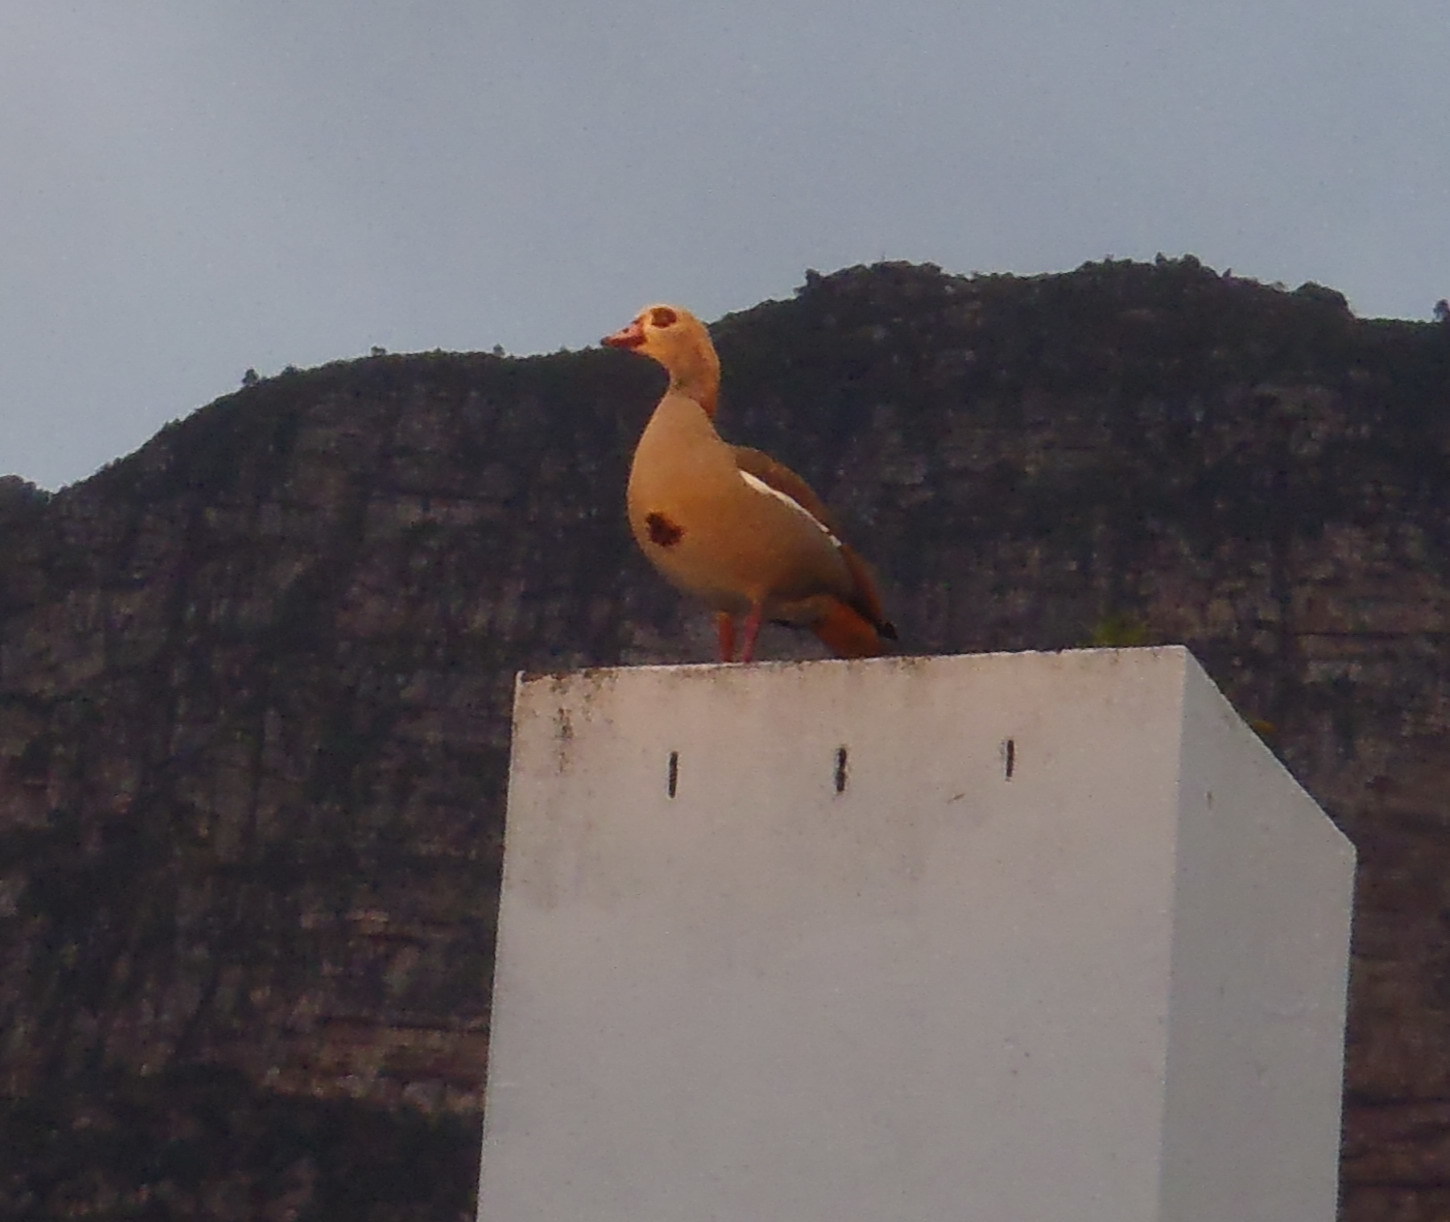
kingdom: Animalia
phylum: Chordata
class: Aves
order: Anseriformes
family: Anatidae
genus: Alopochen
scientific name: Alopochen aegyptiaca
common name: Egyptian goose
